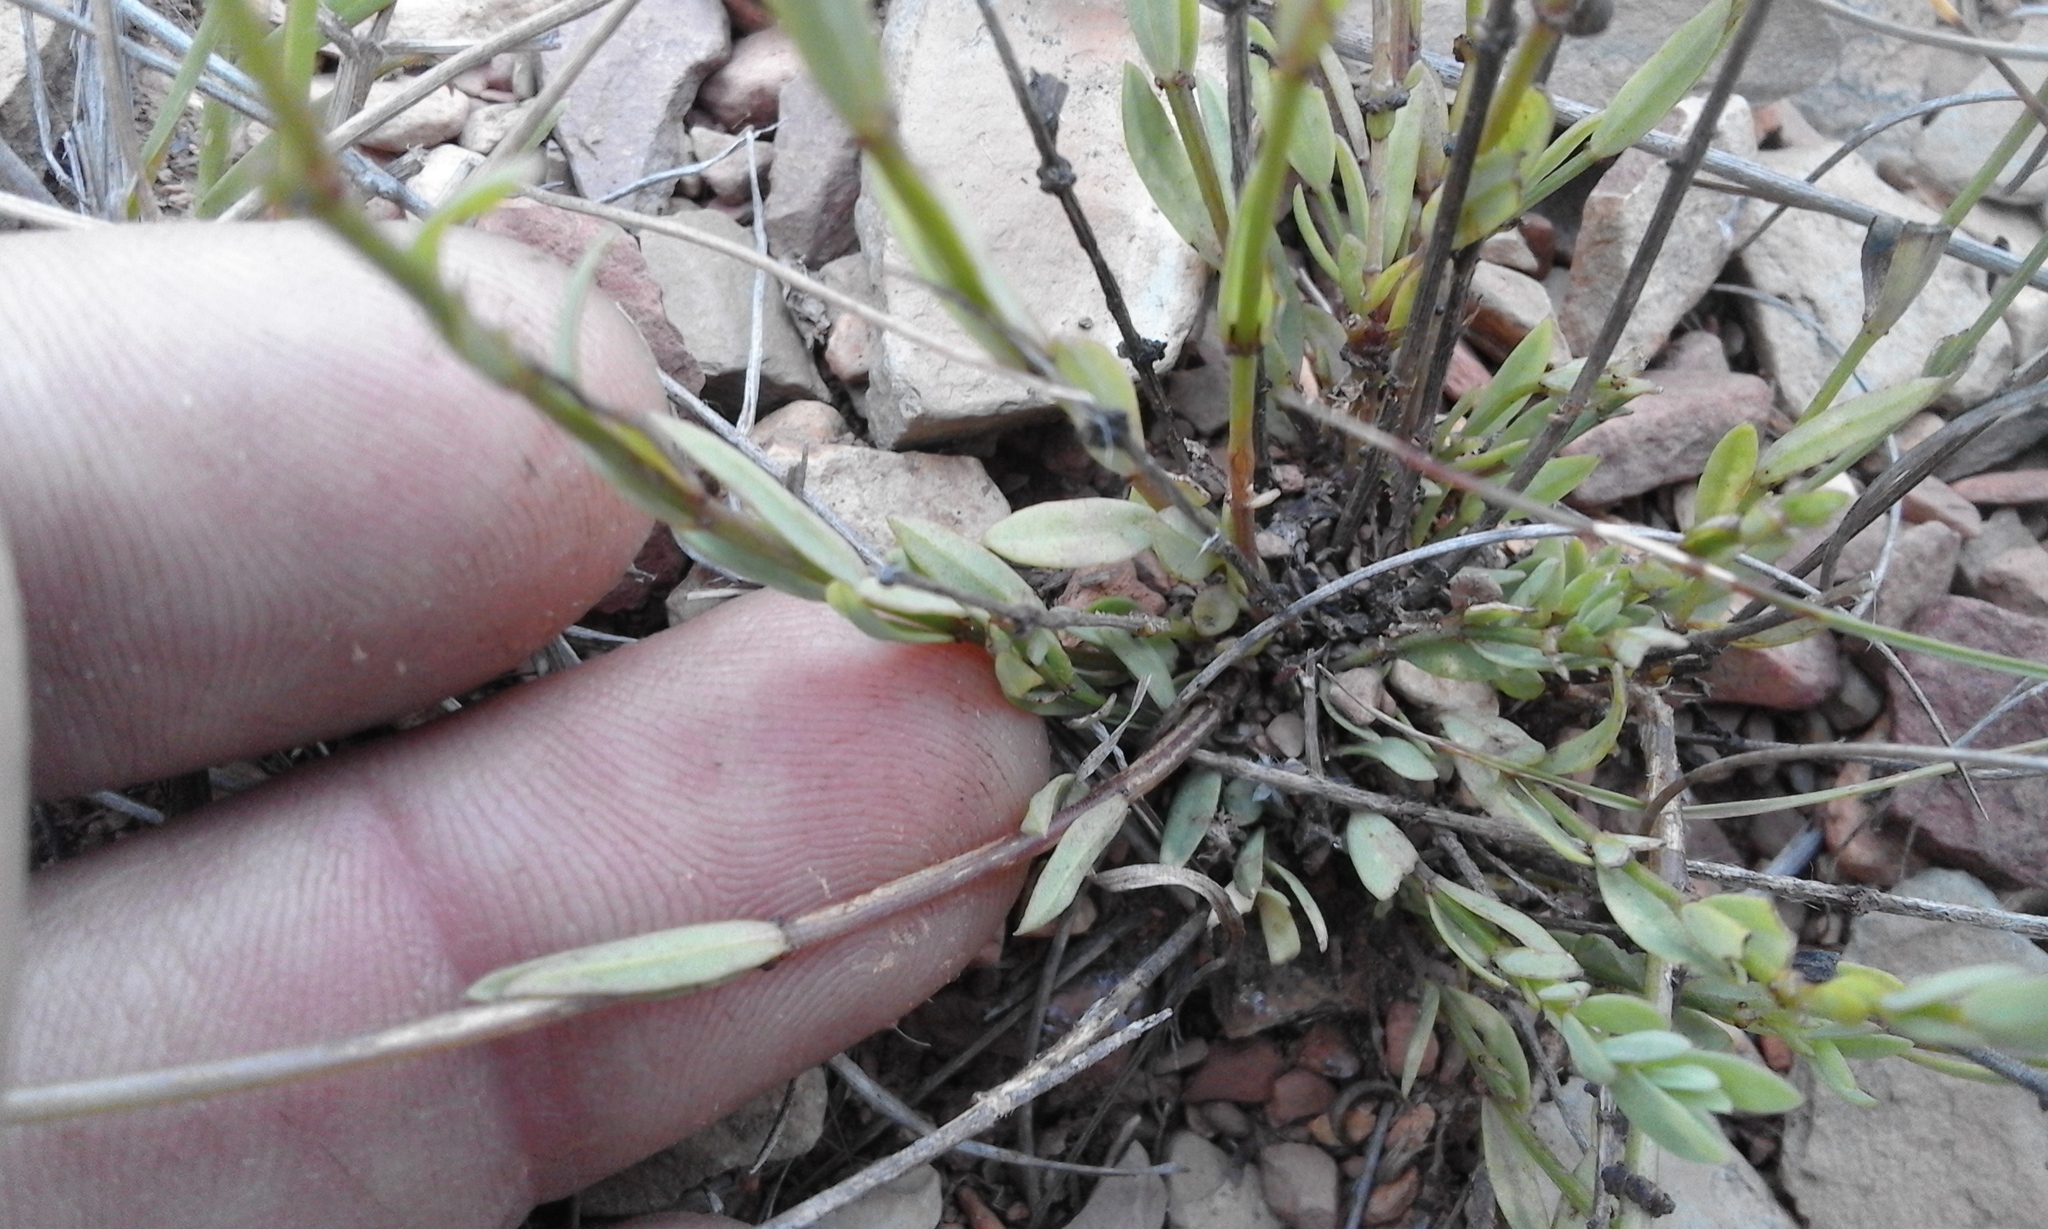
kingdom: Plantae
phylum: Tracheophyta
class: Magnoliopsida
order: Malpighiales
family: Linaceae
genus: Linum
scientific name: Linum thunbergii
